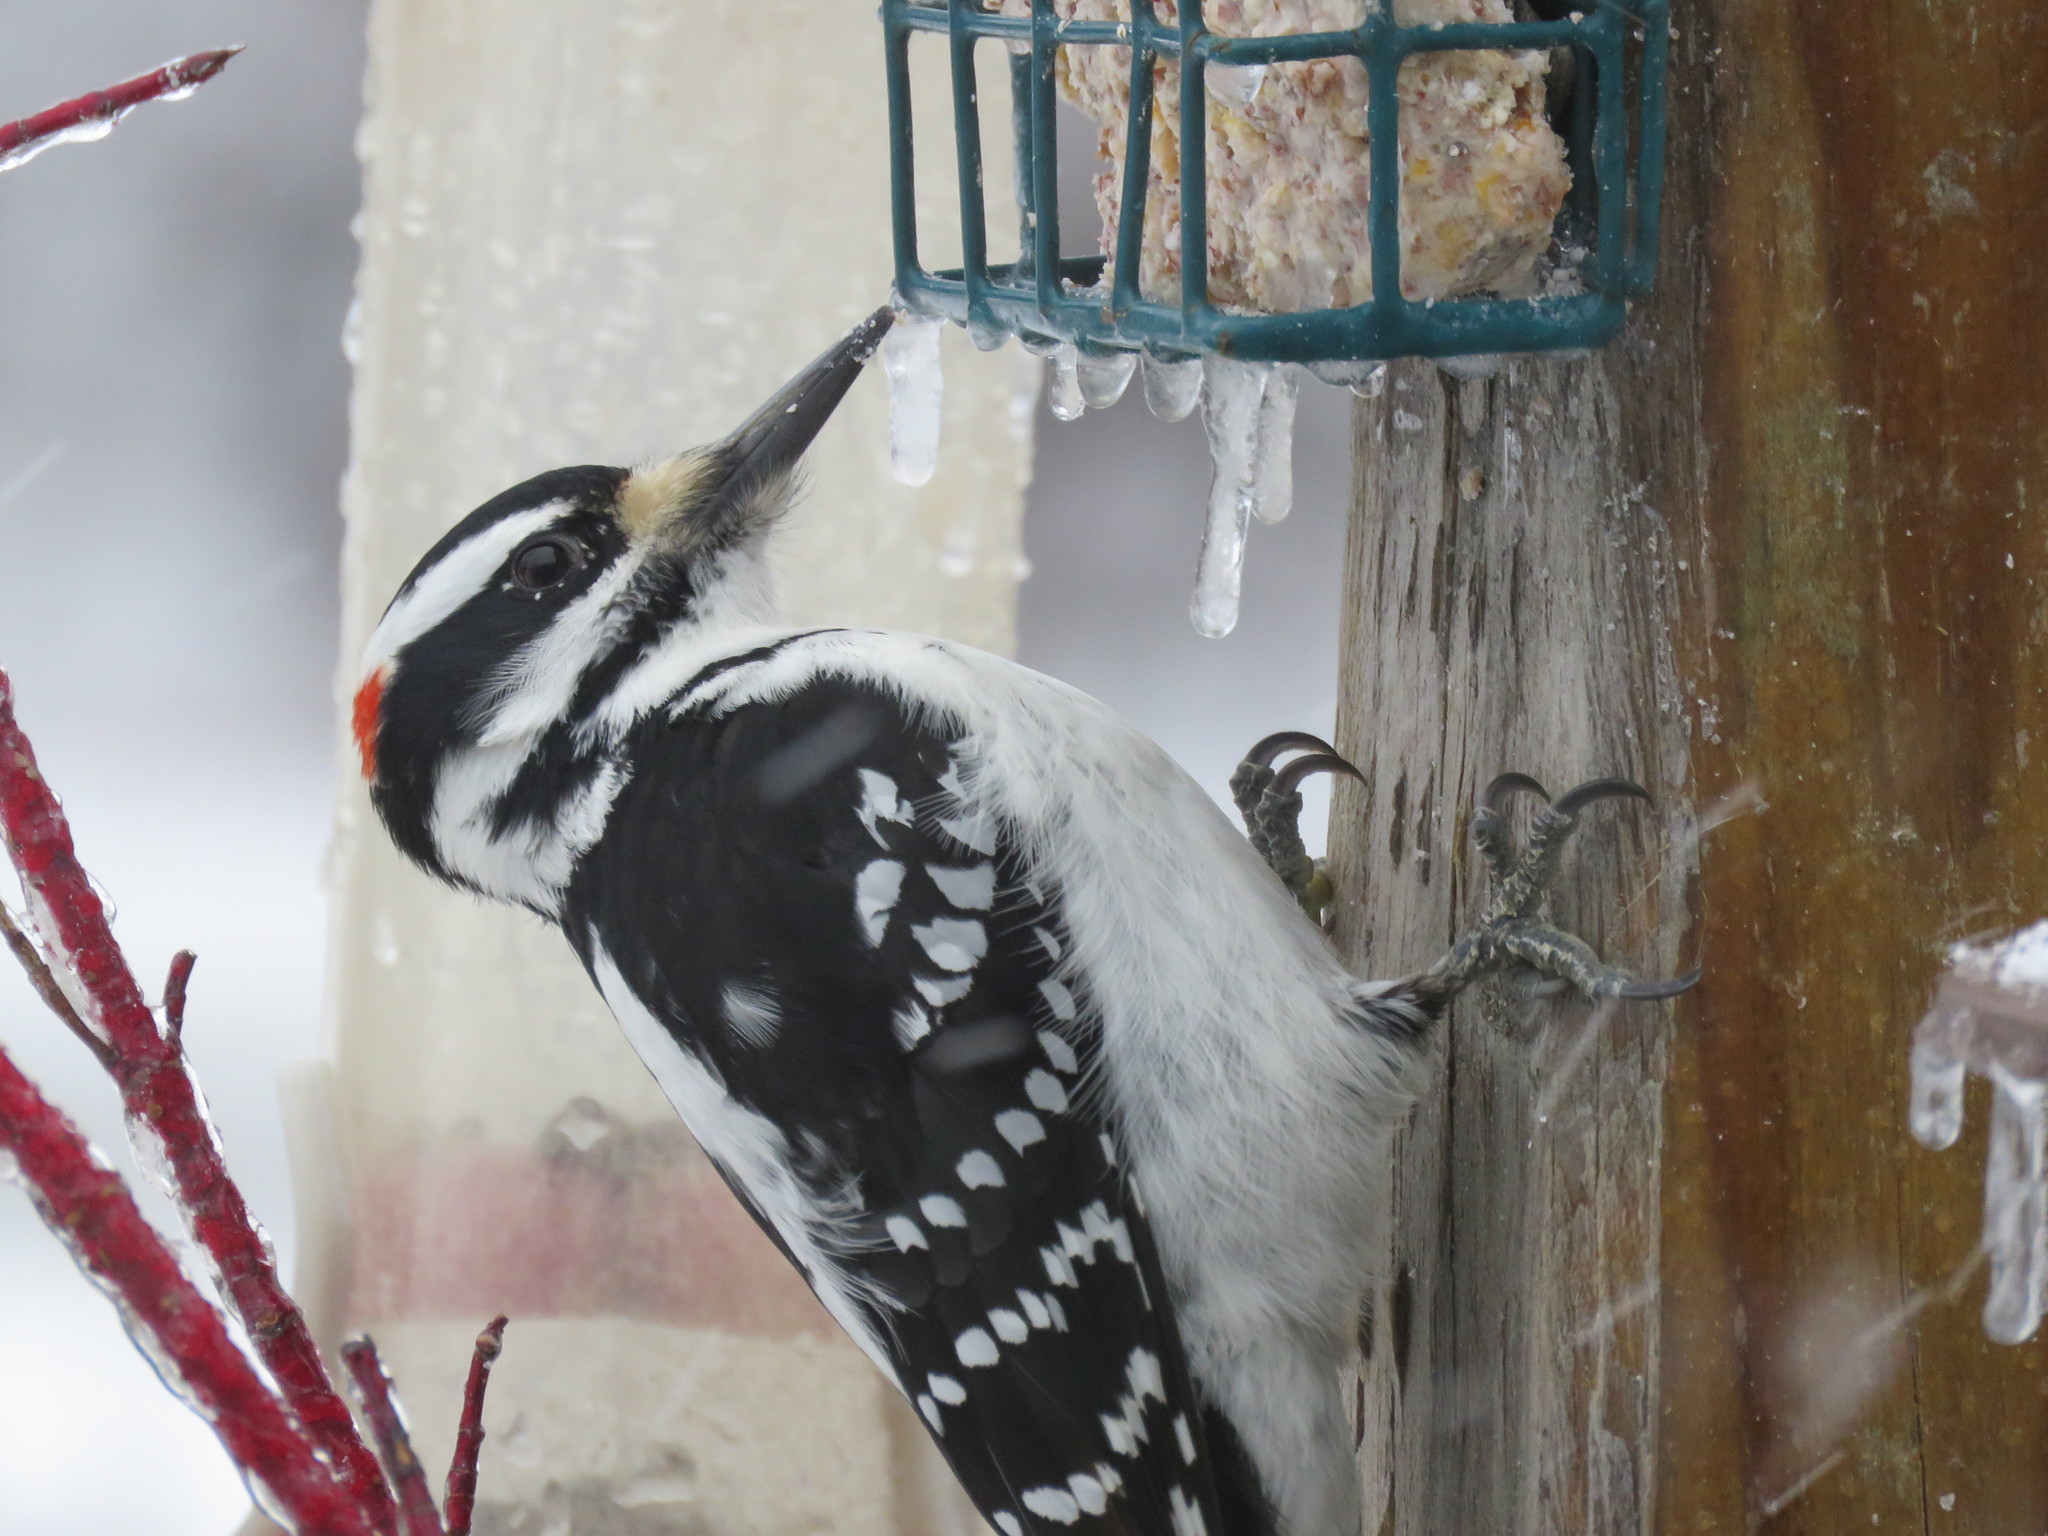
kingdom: Animalia
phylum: Chordata
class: Aves
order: Piciformes
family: Picidae
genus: Leuconotopicus
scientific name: Leuconotopicus villosus
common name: Hairy woodpecker
